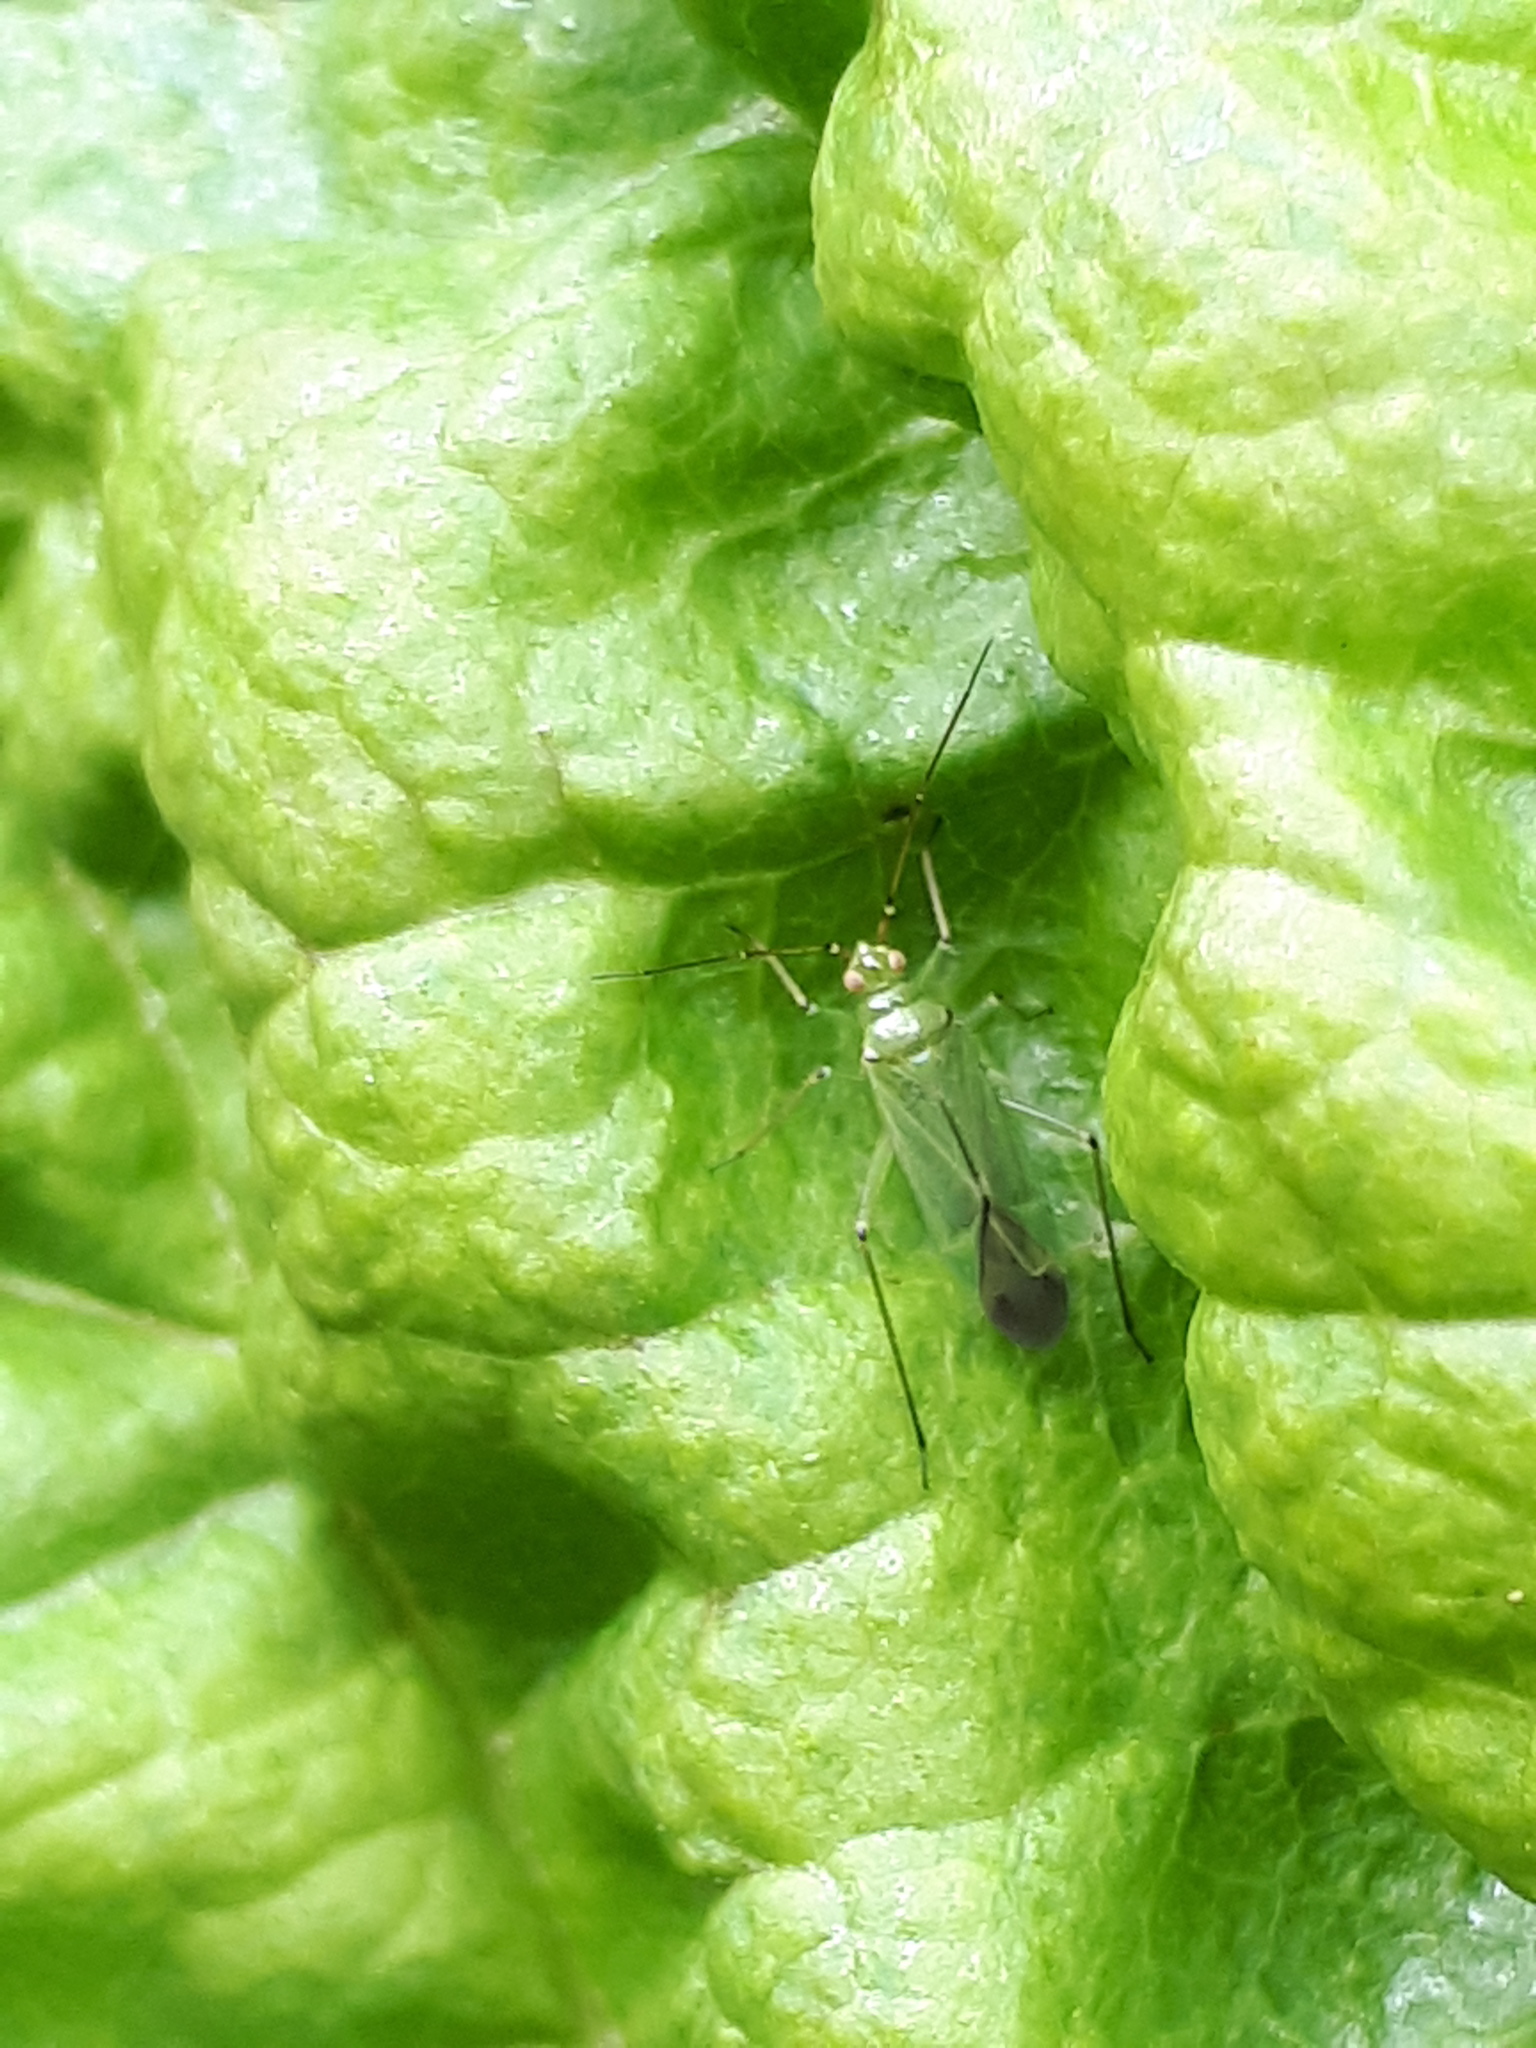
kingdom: Animalia
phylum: Arthropoda
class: Insecta
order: Hemiptera
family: Miridae
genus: Blepharidopterus
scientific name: Blepharidopterus angulatus
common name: Plant bug
